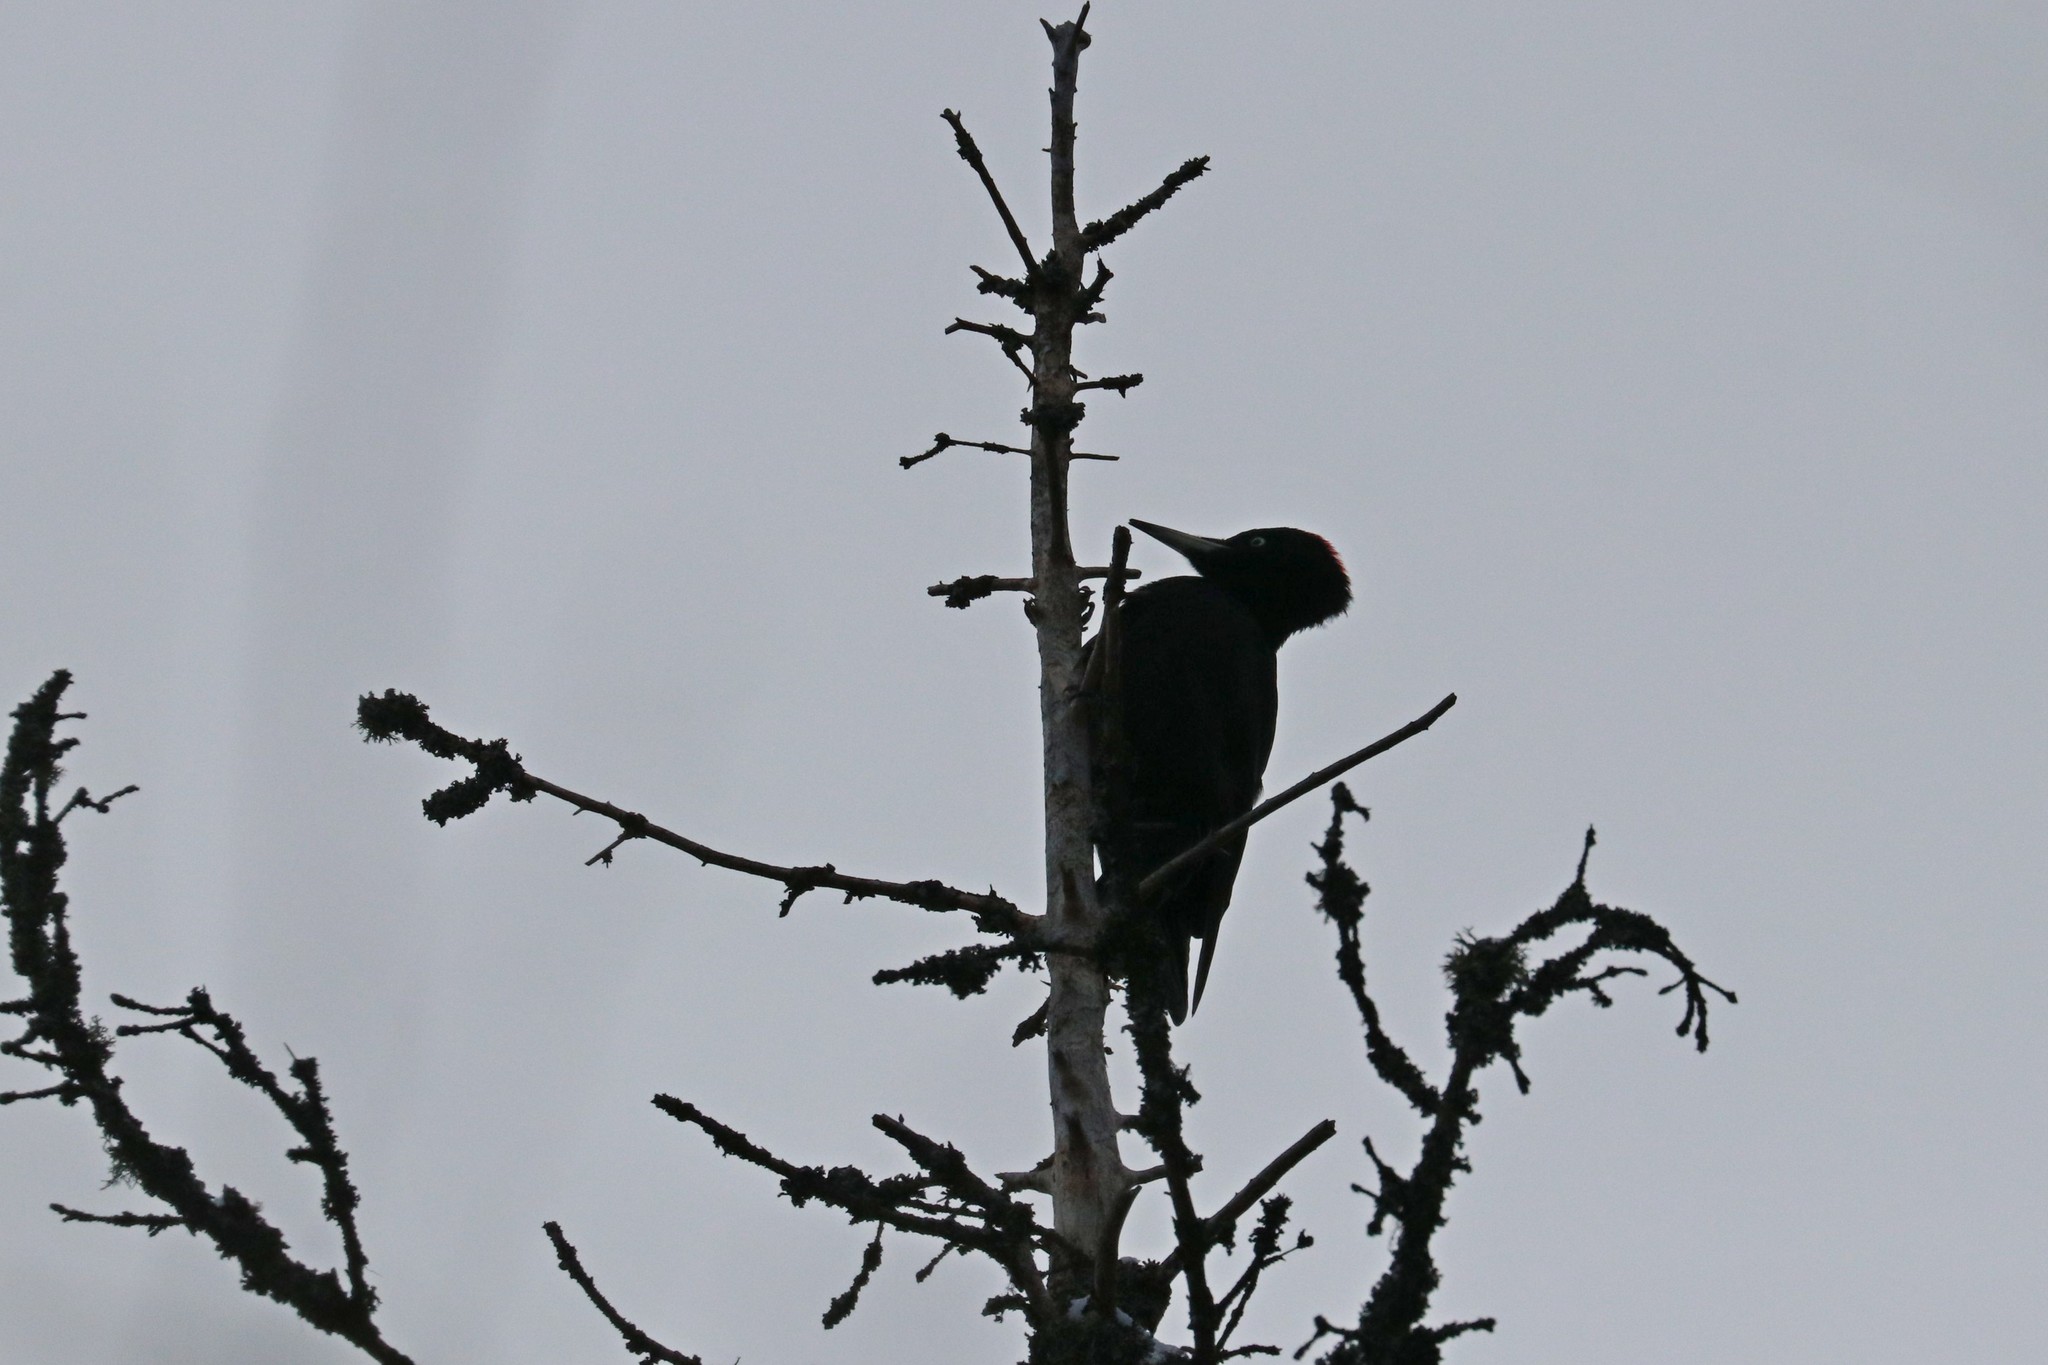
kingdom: Animalia
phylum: Chordata
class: Aves
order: Piciformes
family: Picidae
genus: Dryocopus
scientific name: Dryocopus martius
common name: Black woodpecker
